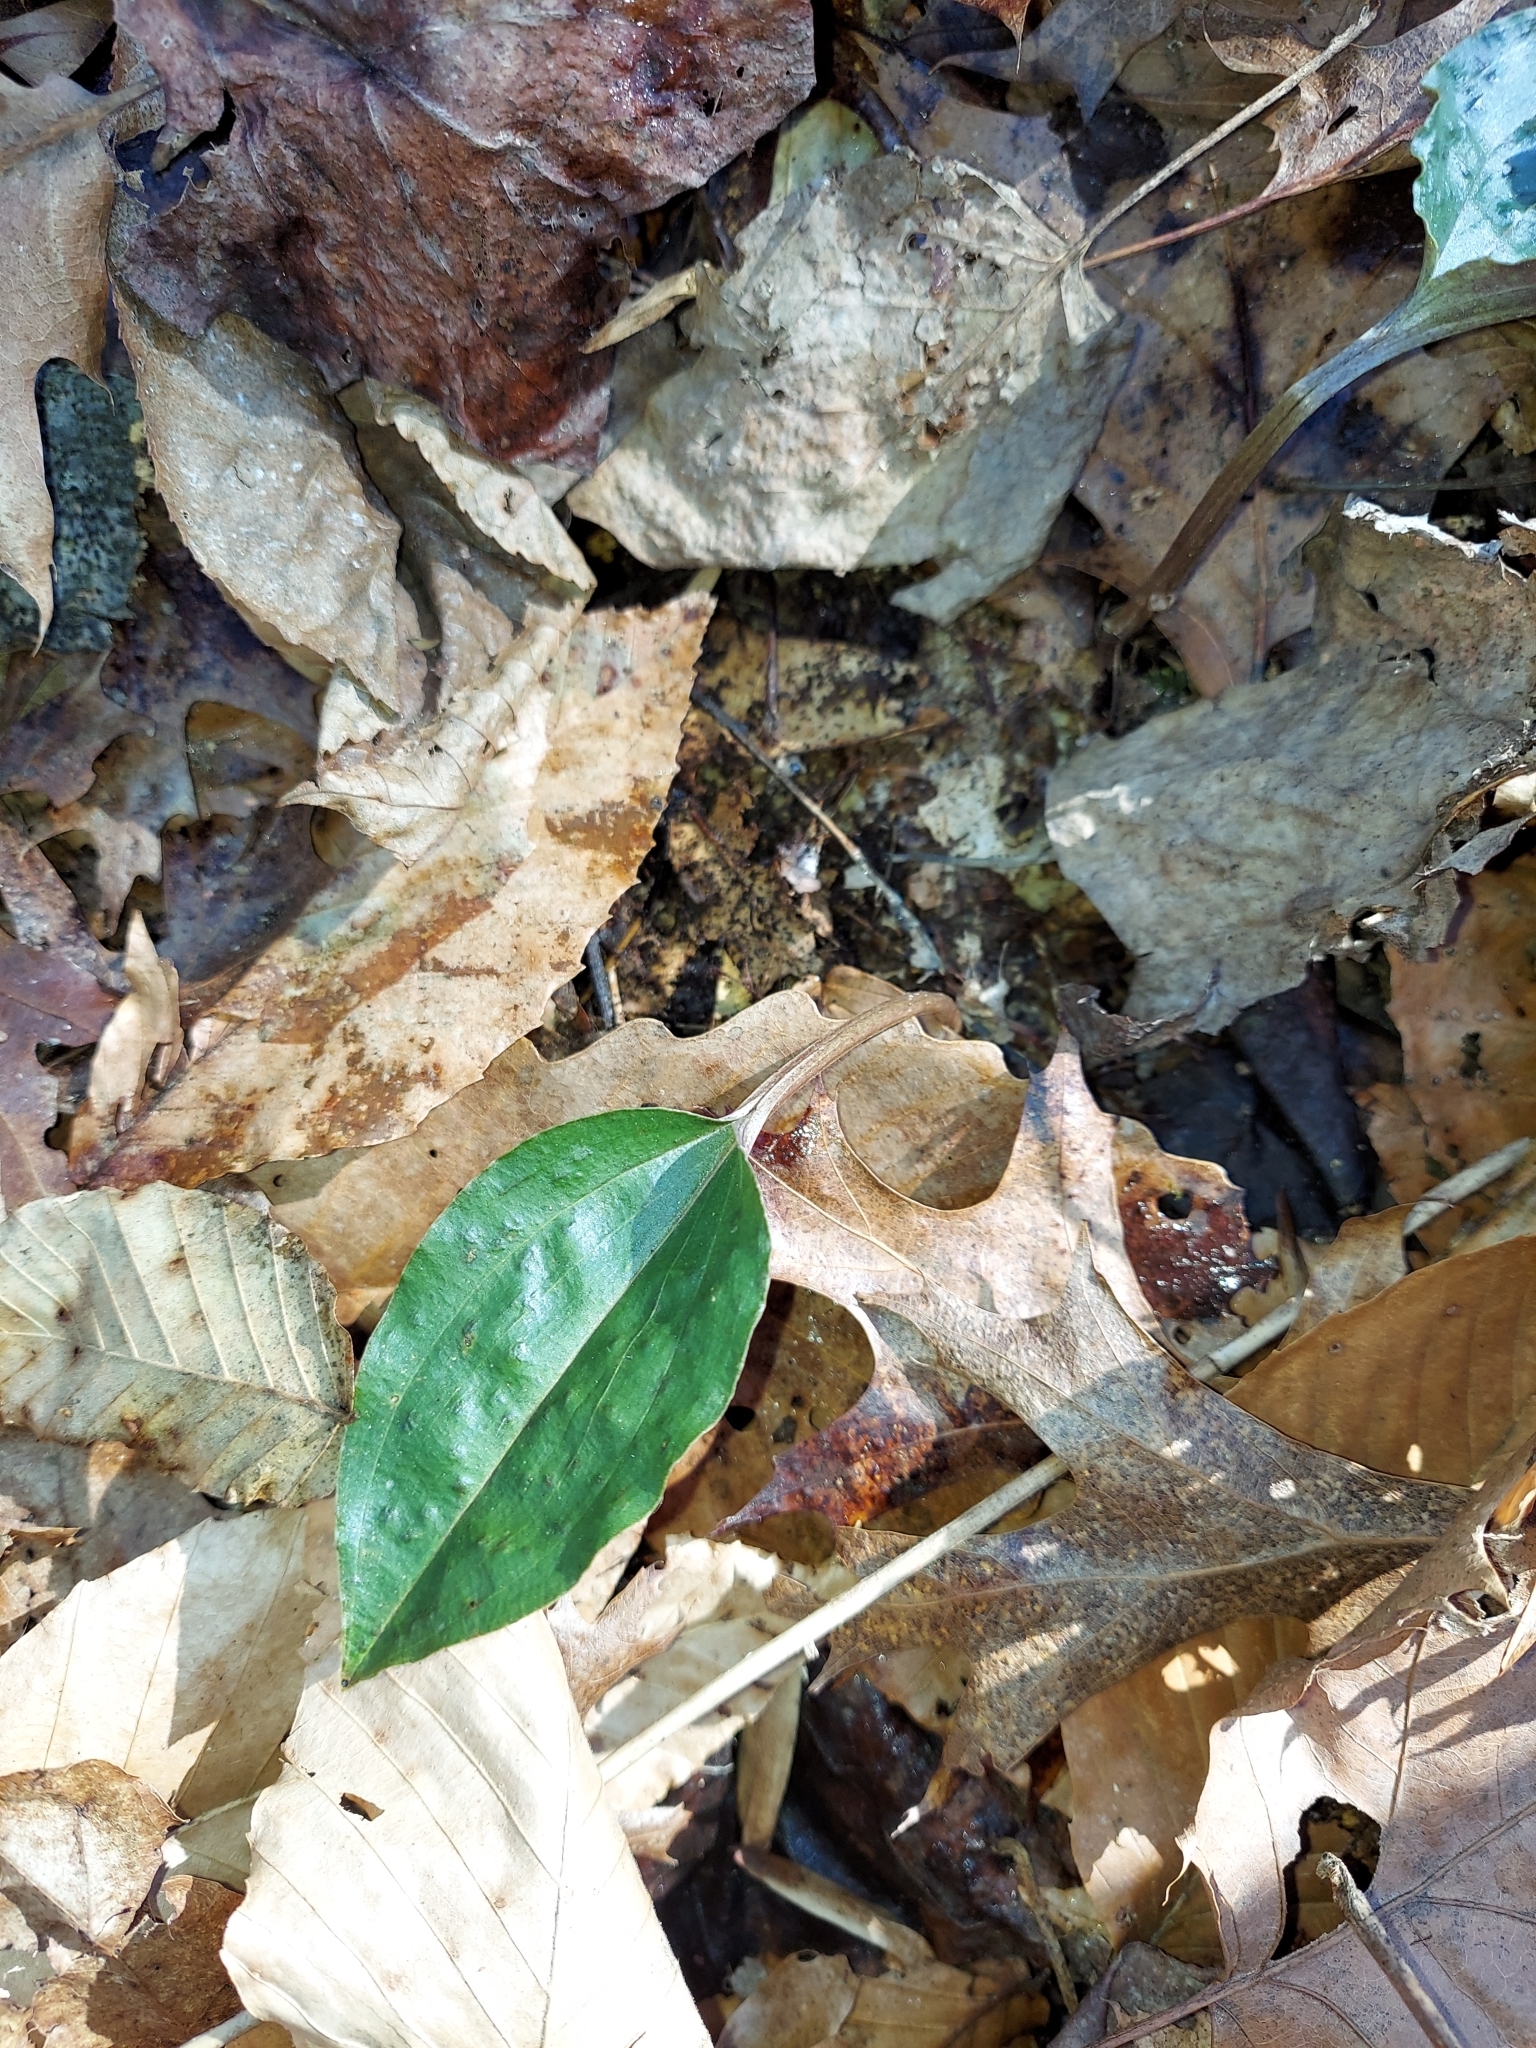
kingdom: Plantae
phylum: Tracheophyta
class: Liliopsida
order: Asparagales
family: Orchidaceae
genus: Tipularia
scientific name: Tipularia discolor
